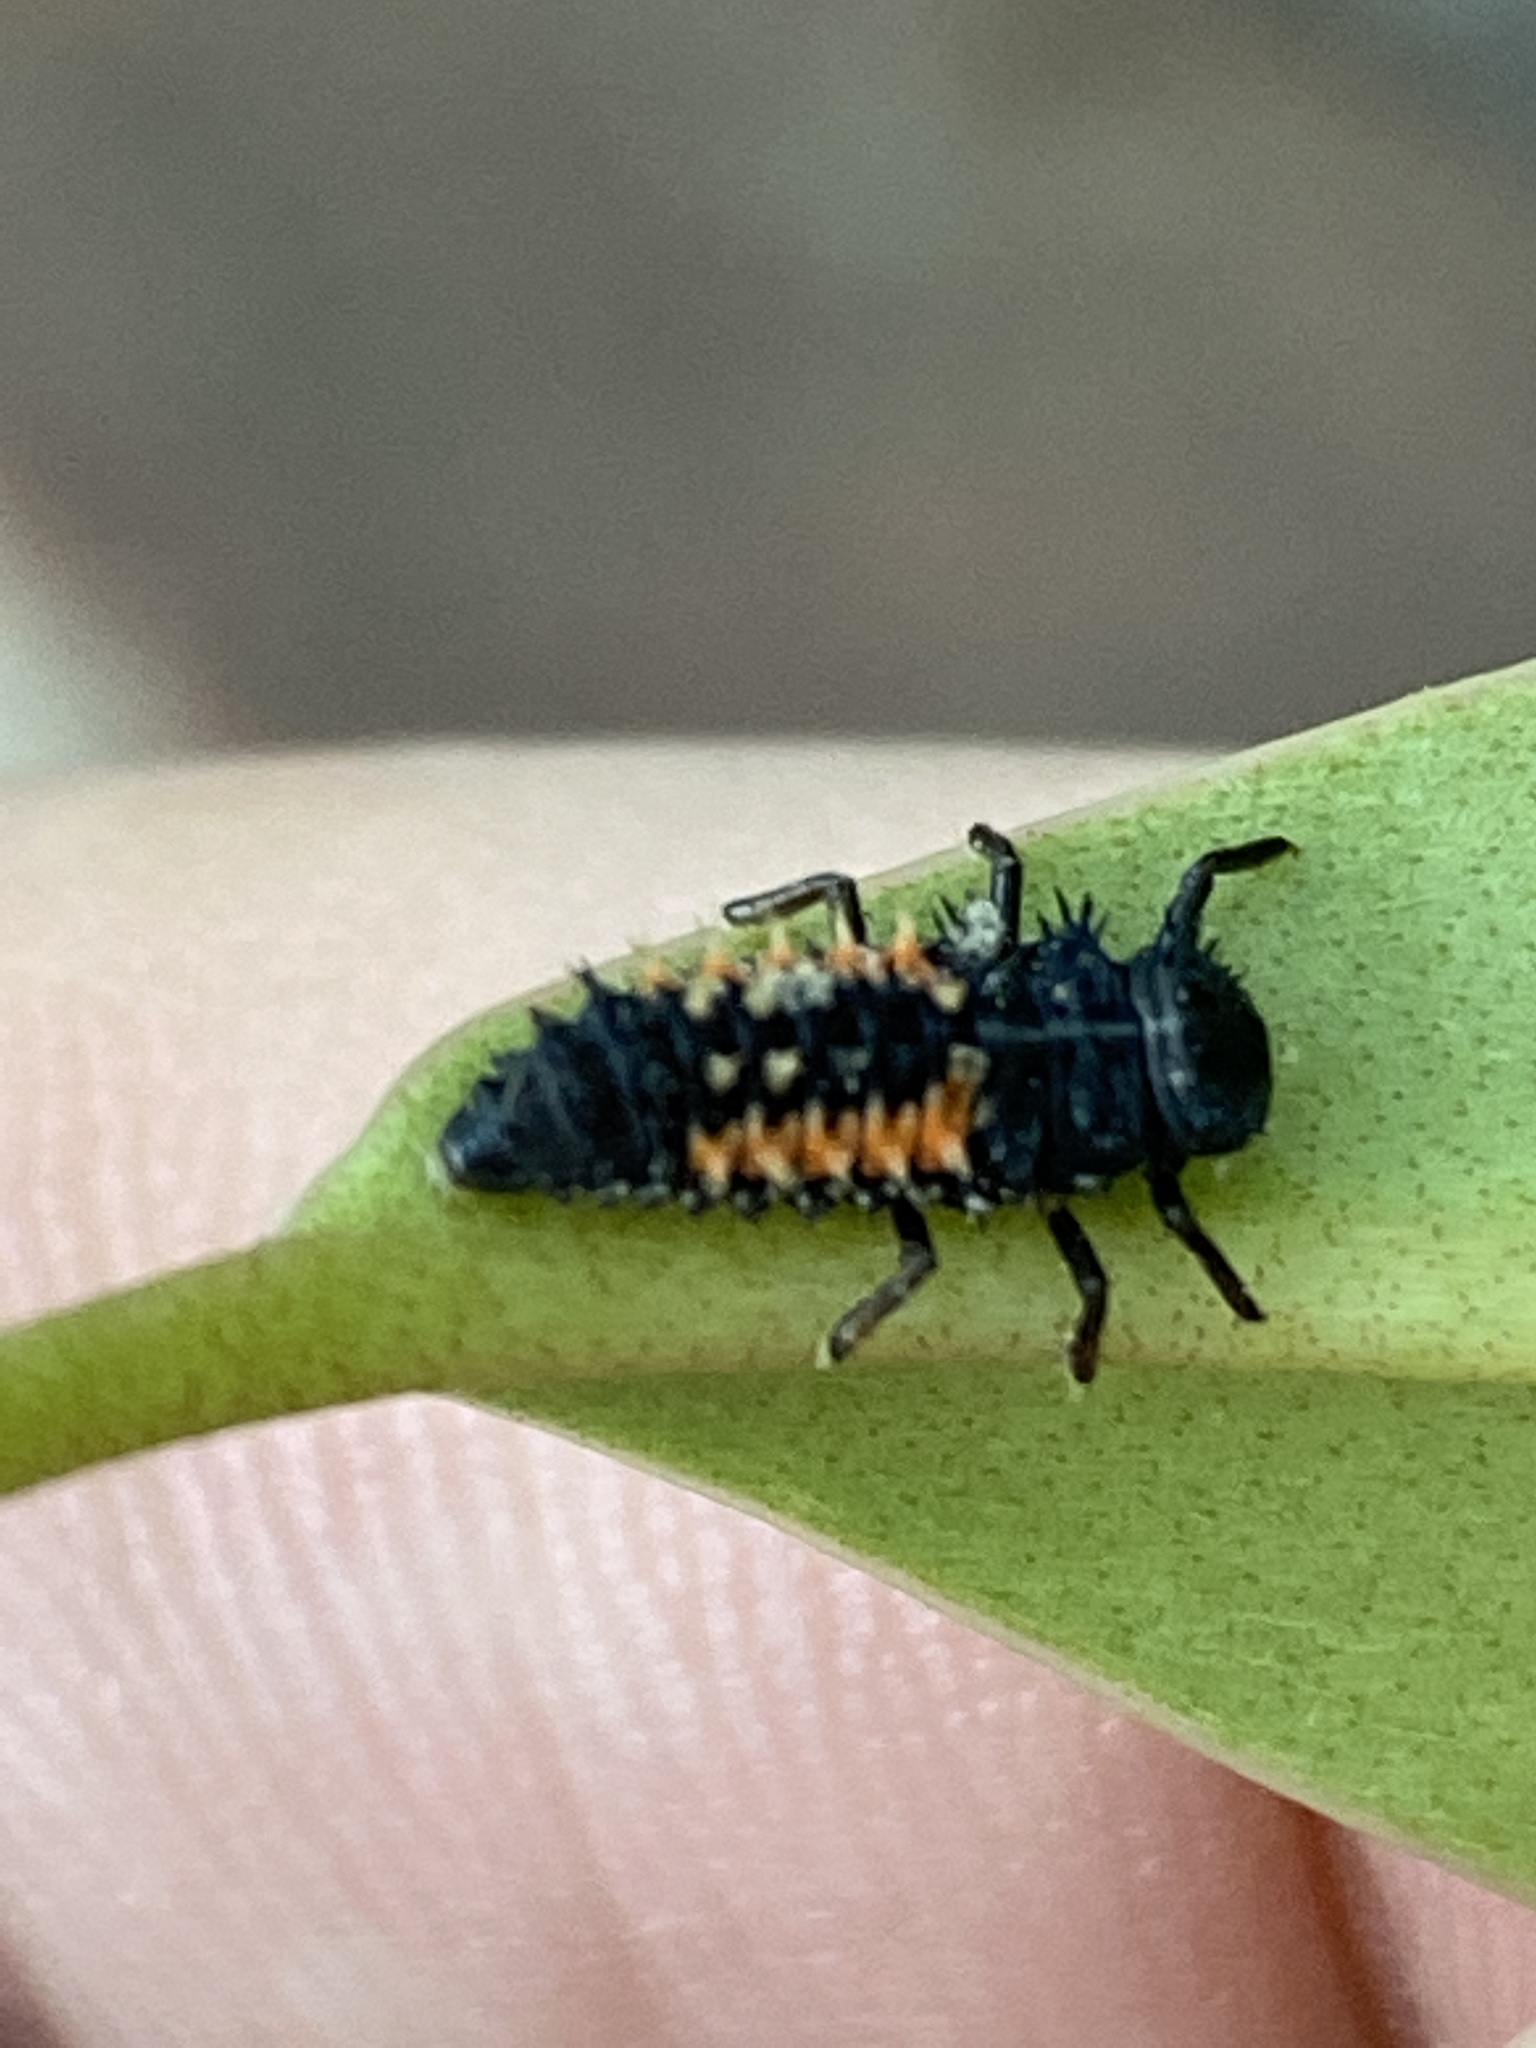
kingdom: Animalia
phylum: Arthropoda
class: Insecta
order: Coleoptera
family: Coccinellidae
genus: Harmonia
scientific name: Harmonia axyridis
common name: Harlequin ladybird
